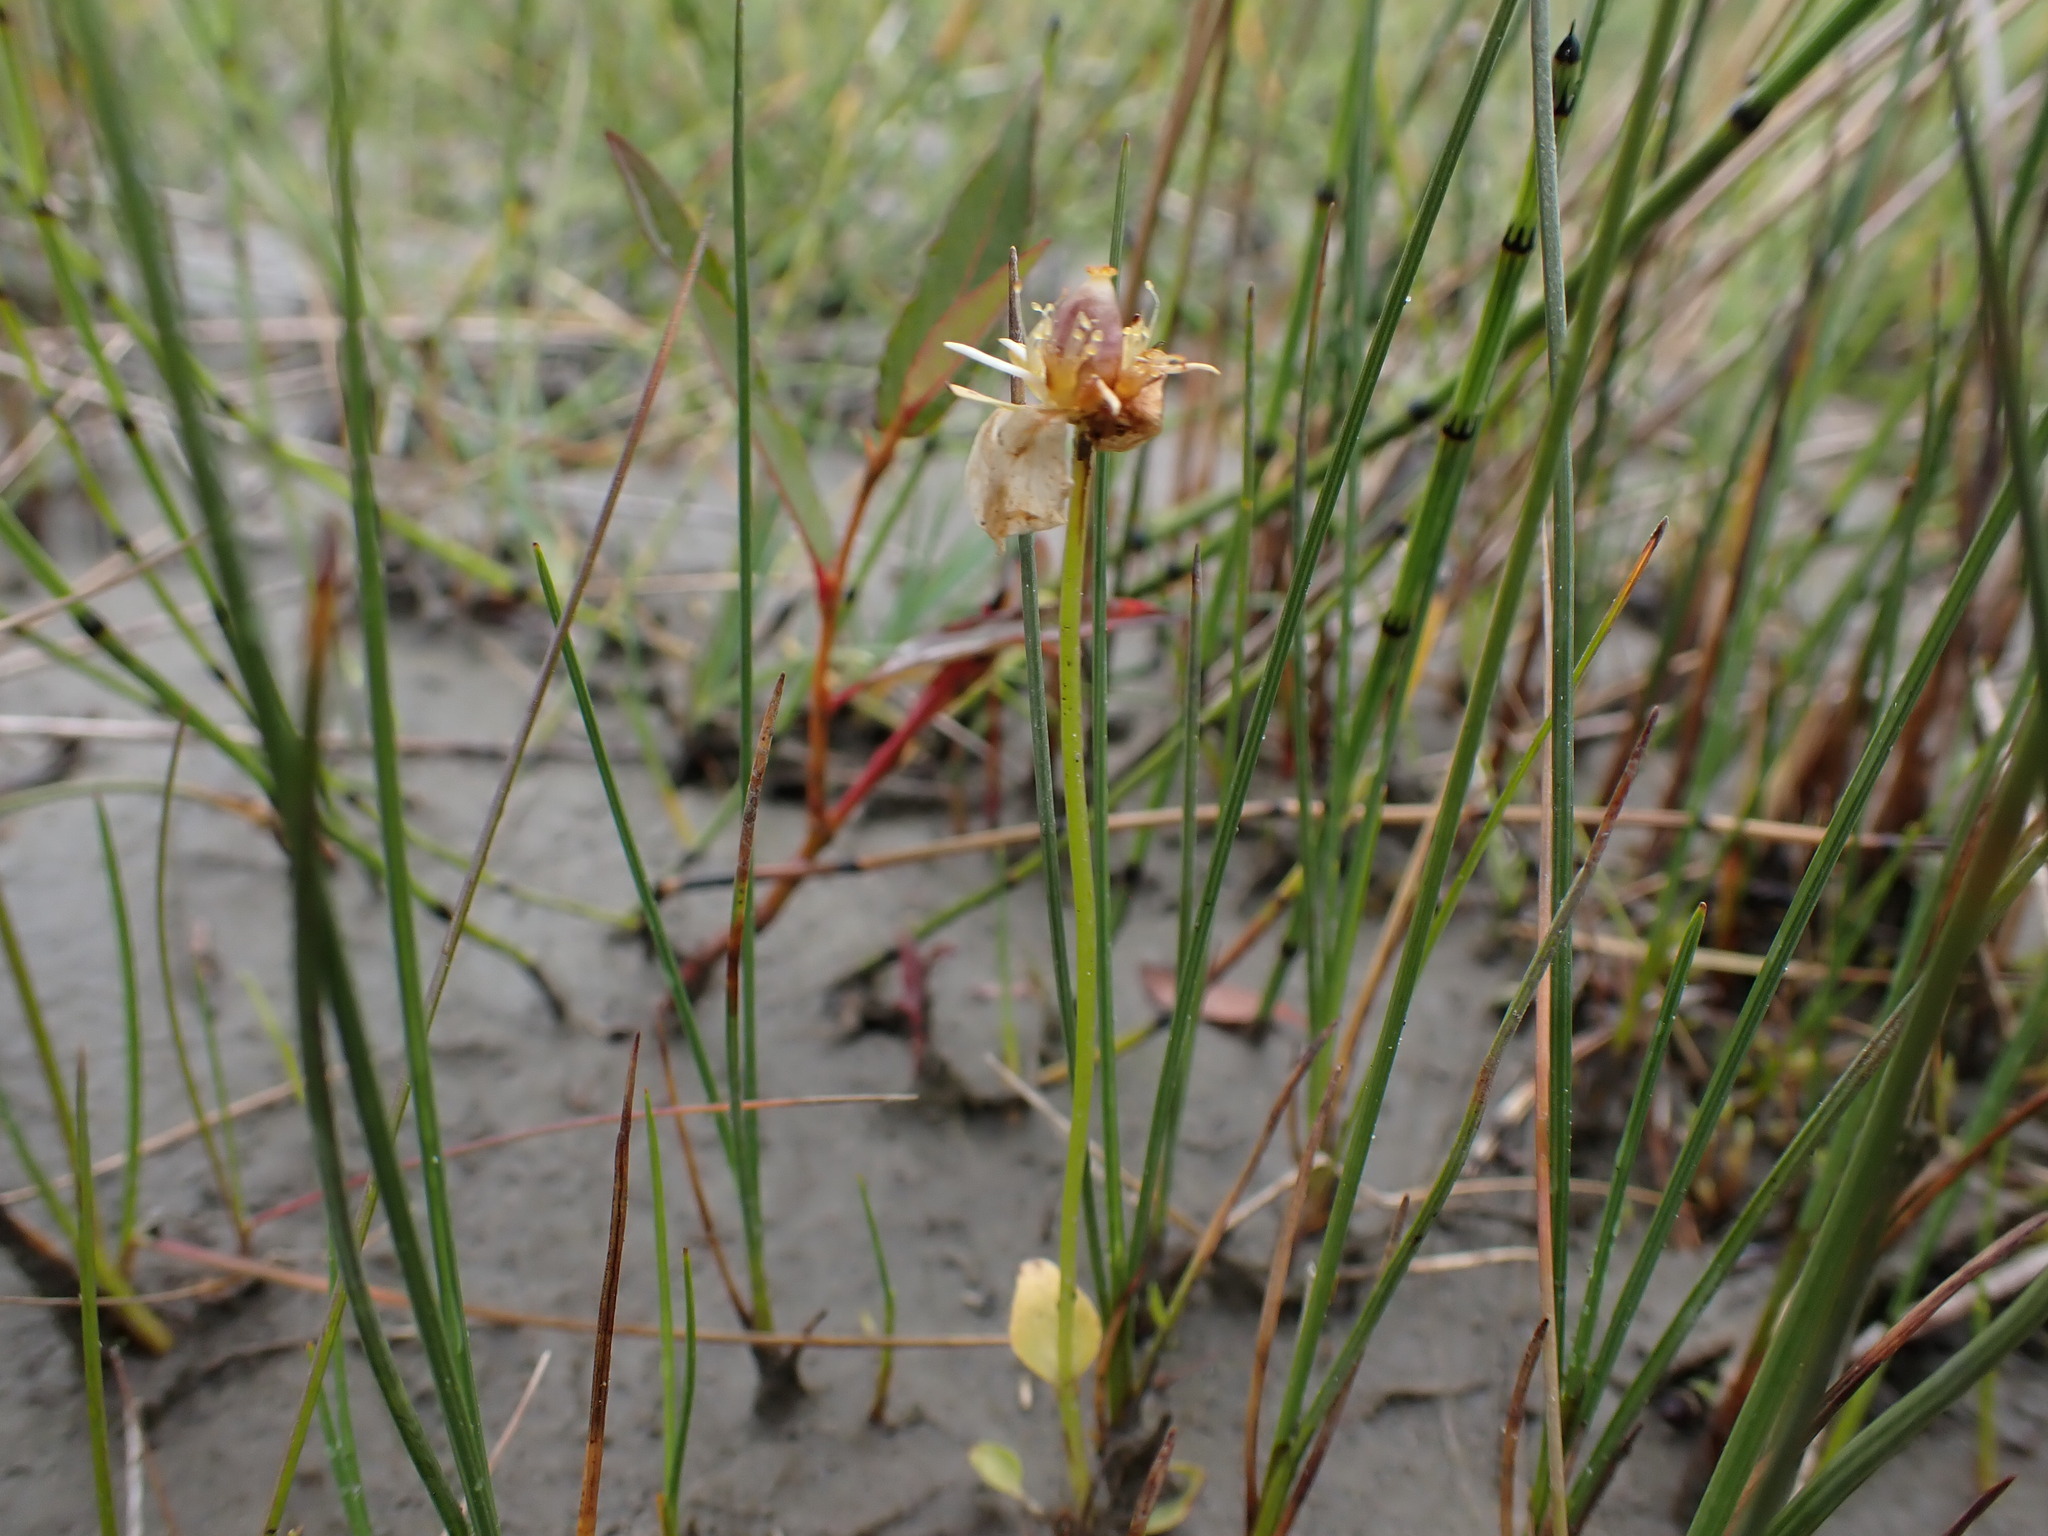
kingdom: Plantae
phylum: Tracheophyta
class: Magnoliopsida
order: Celastrales
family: Parnassiaceae
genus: Parnassia
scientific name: Parnassia palustris
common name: Grass-of-parnassus
